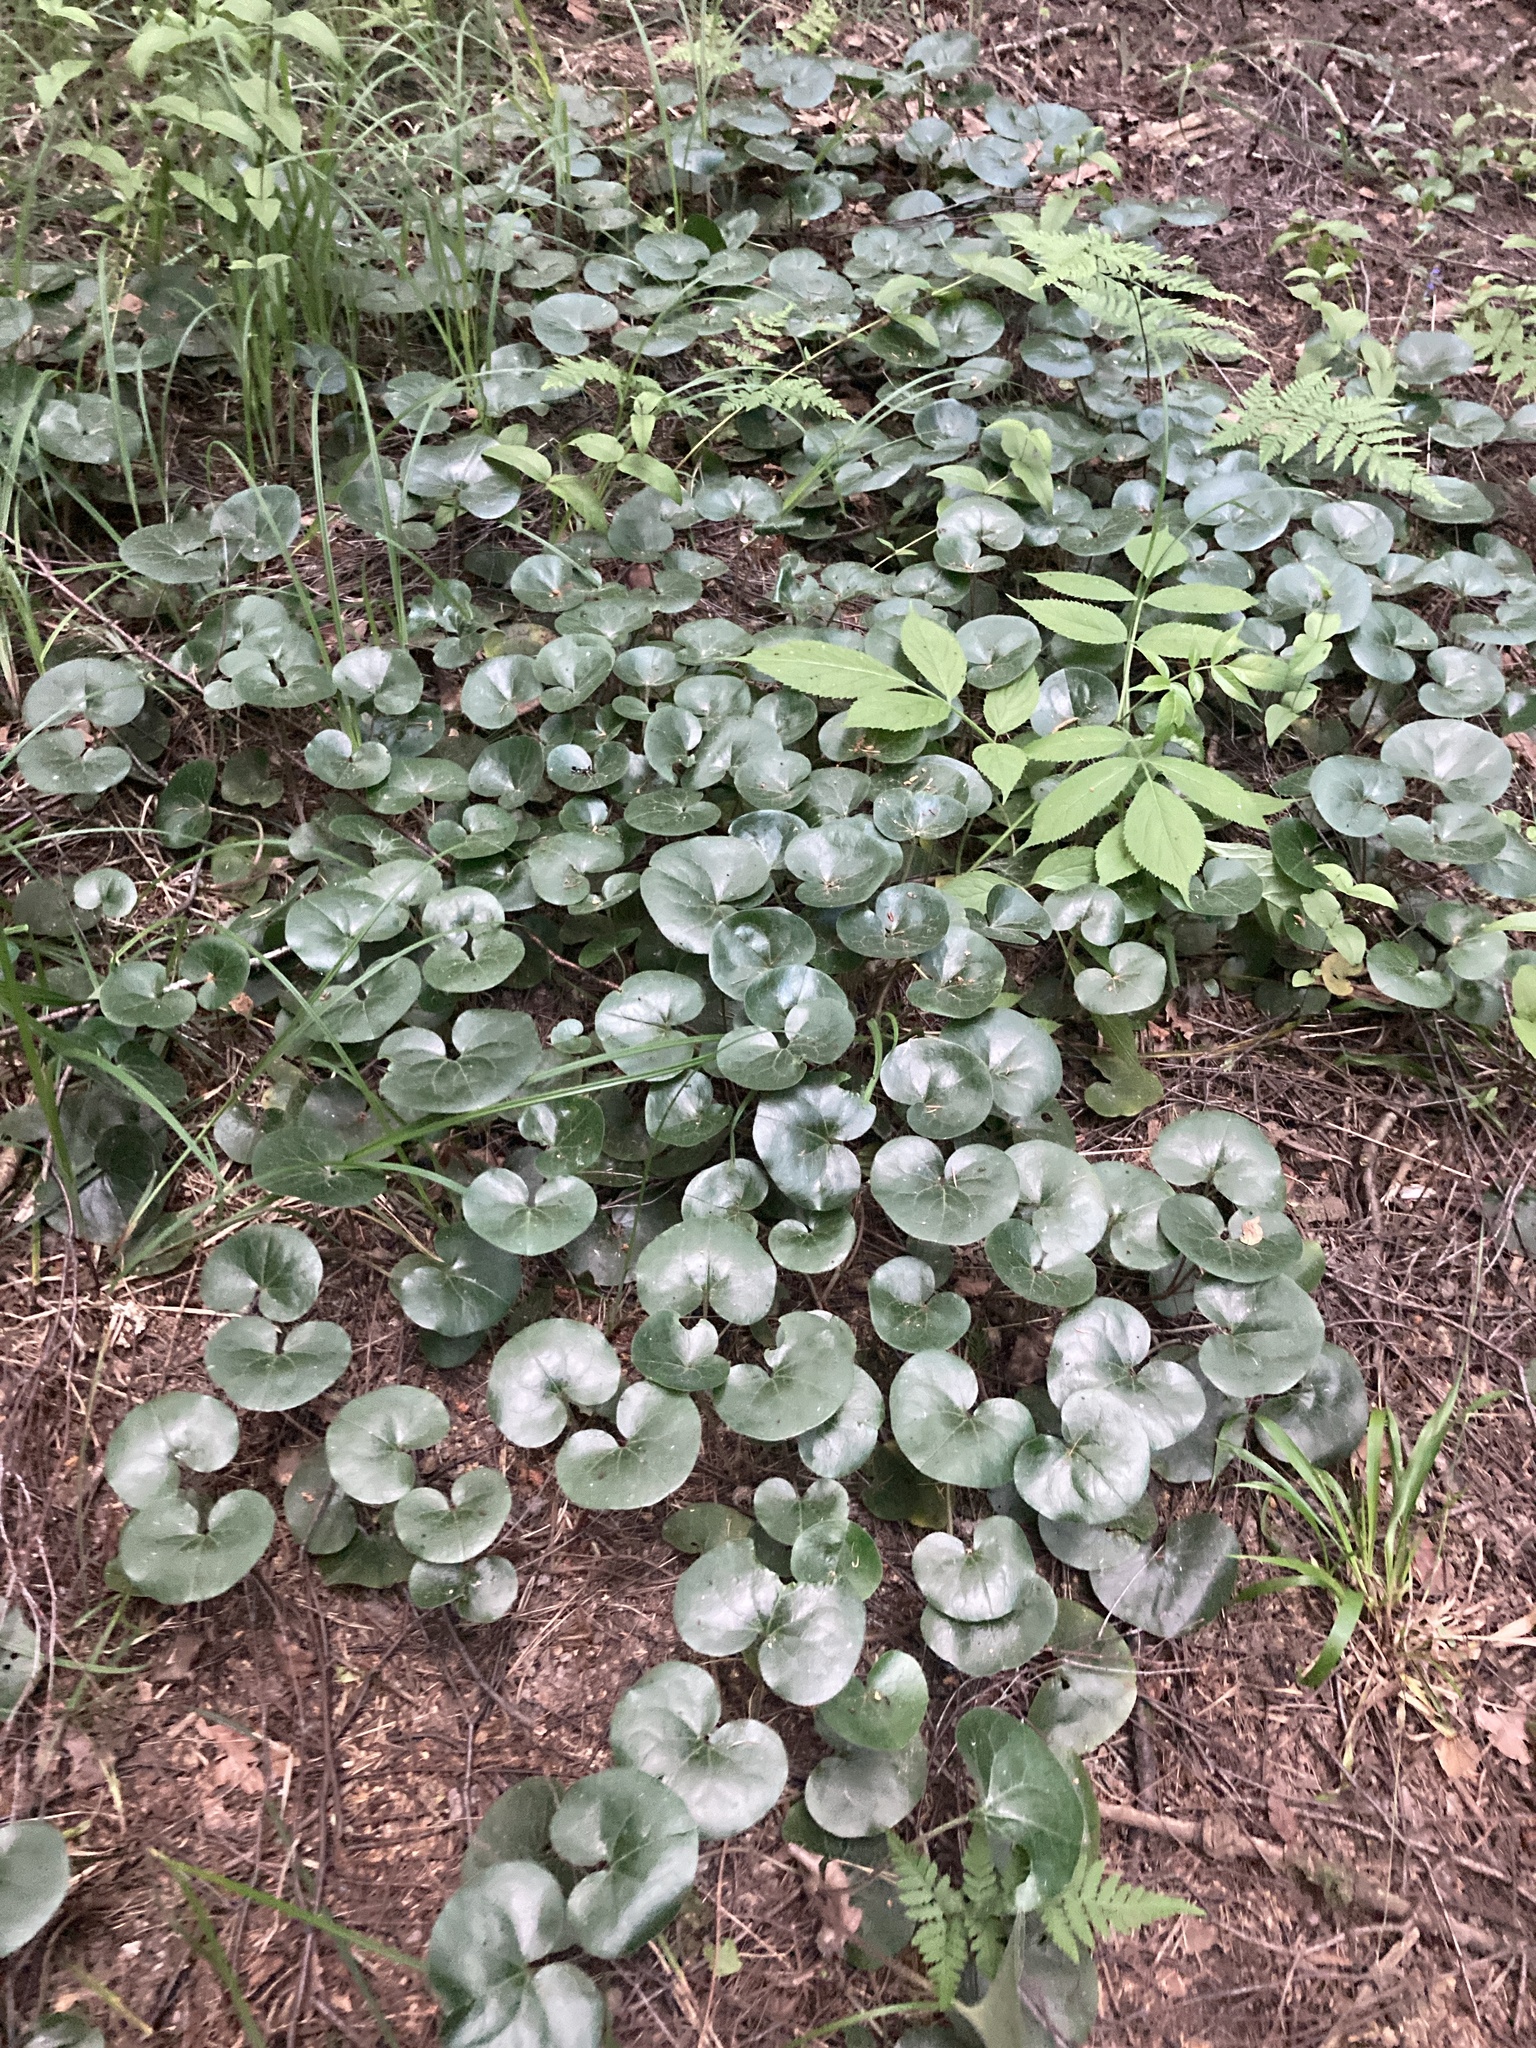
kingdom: Plantae
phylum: Tracheophyta
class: Magnoliopsida
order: Piperales
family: Aristolochiaceae
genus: Asarum
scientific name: Asarum europaeum
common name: Asarabacca
